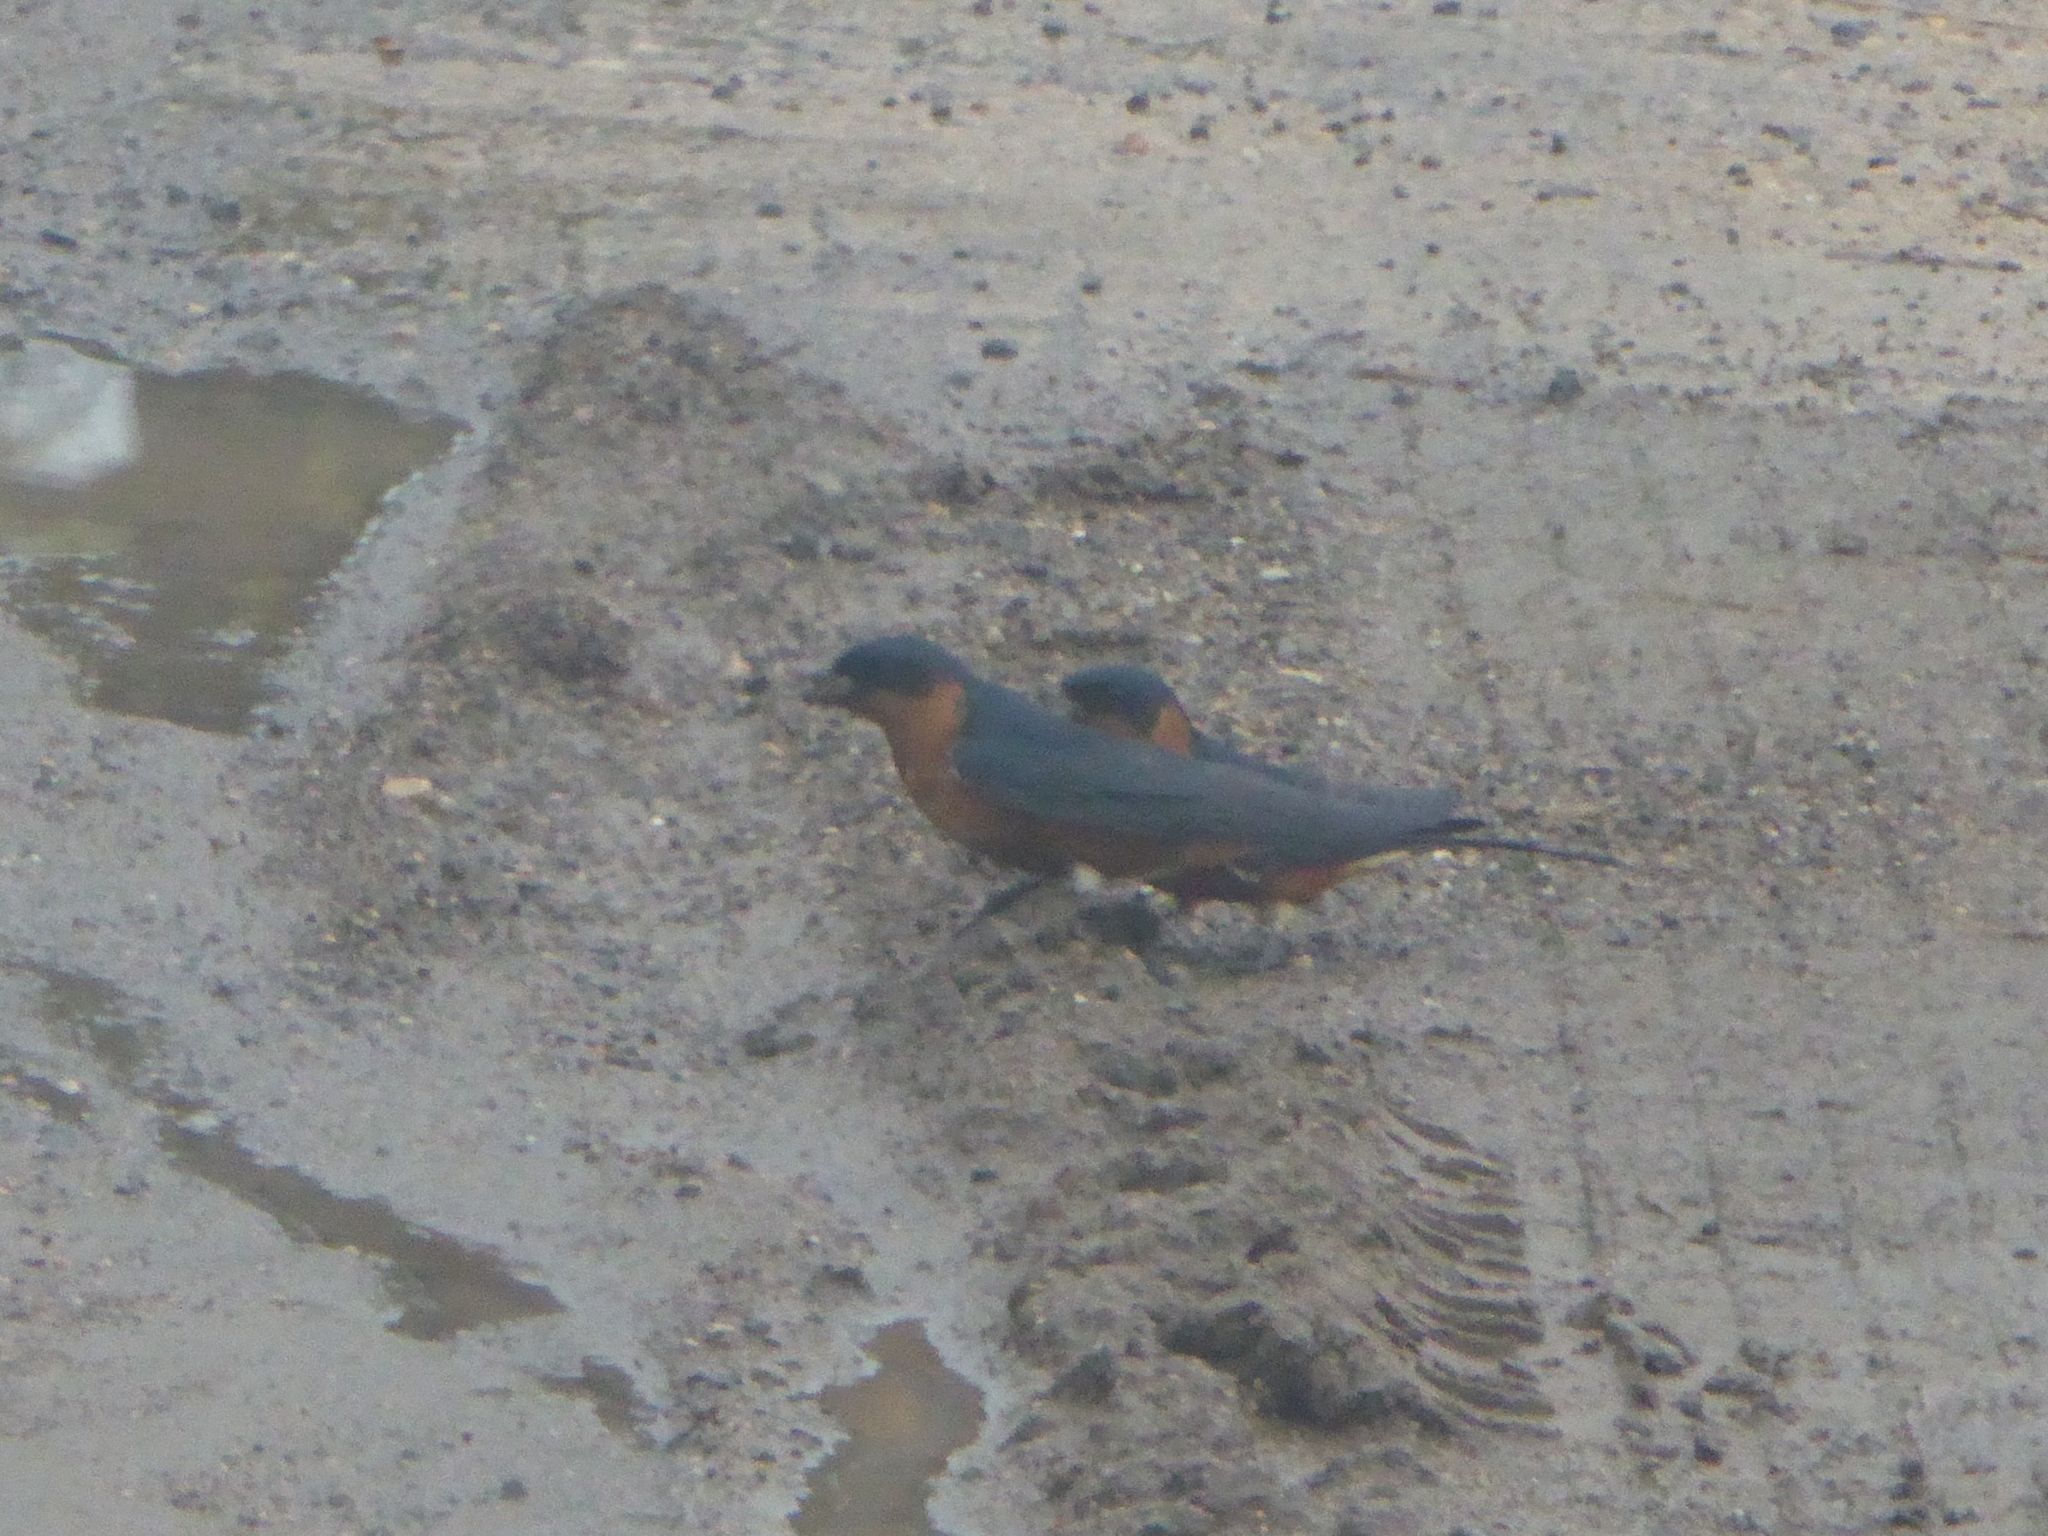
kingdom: Animalia
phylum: Chordata
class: Aves
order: Passeriformes
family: Hirundinidae
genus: Cecropis
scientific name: Cecropis semirufa
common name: Red-breasted swallow
